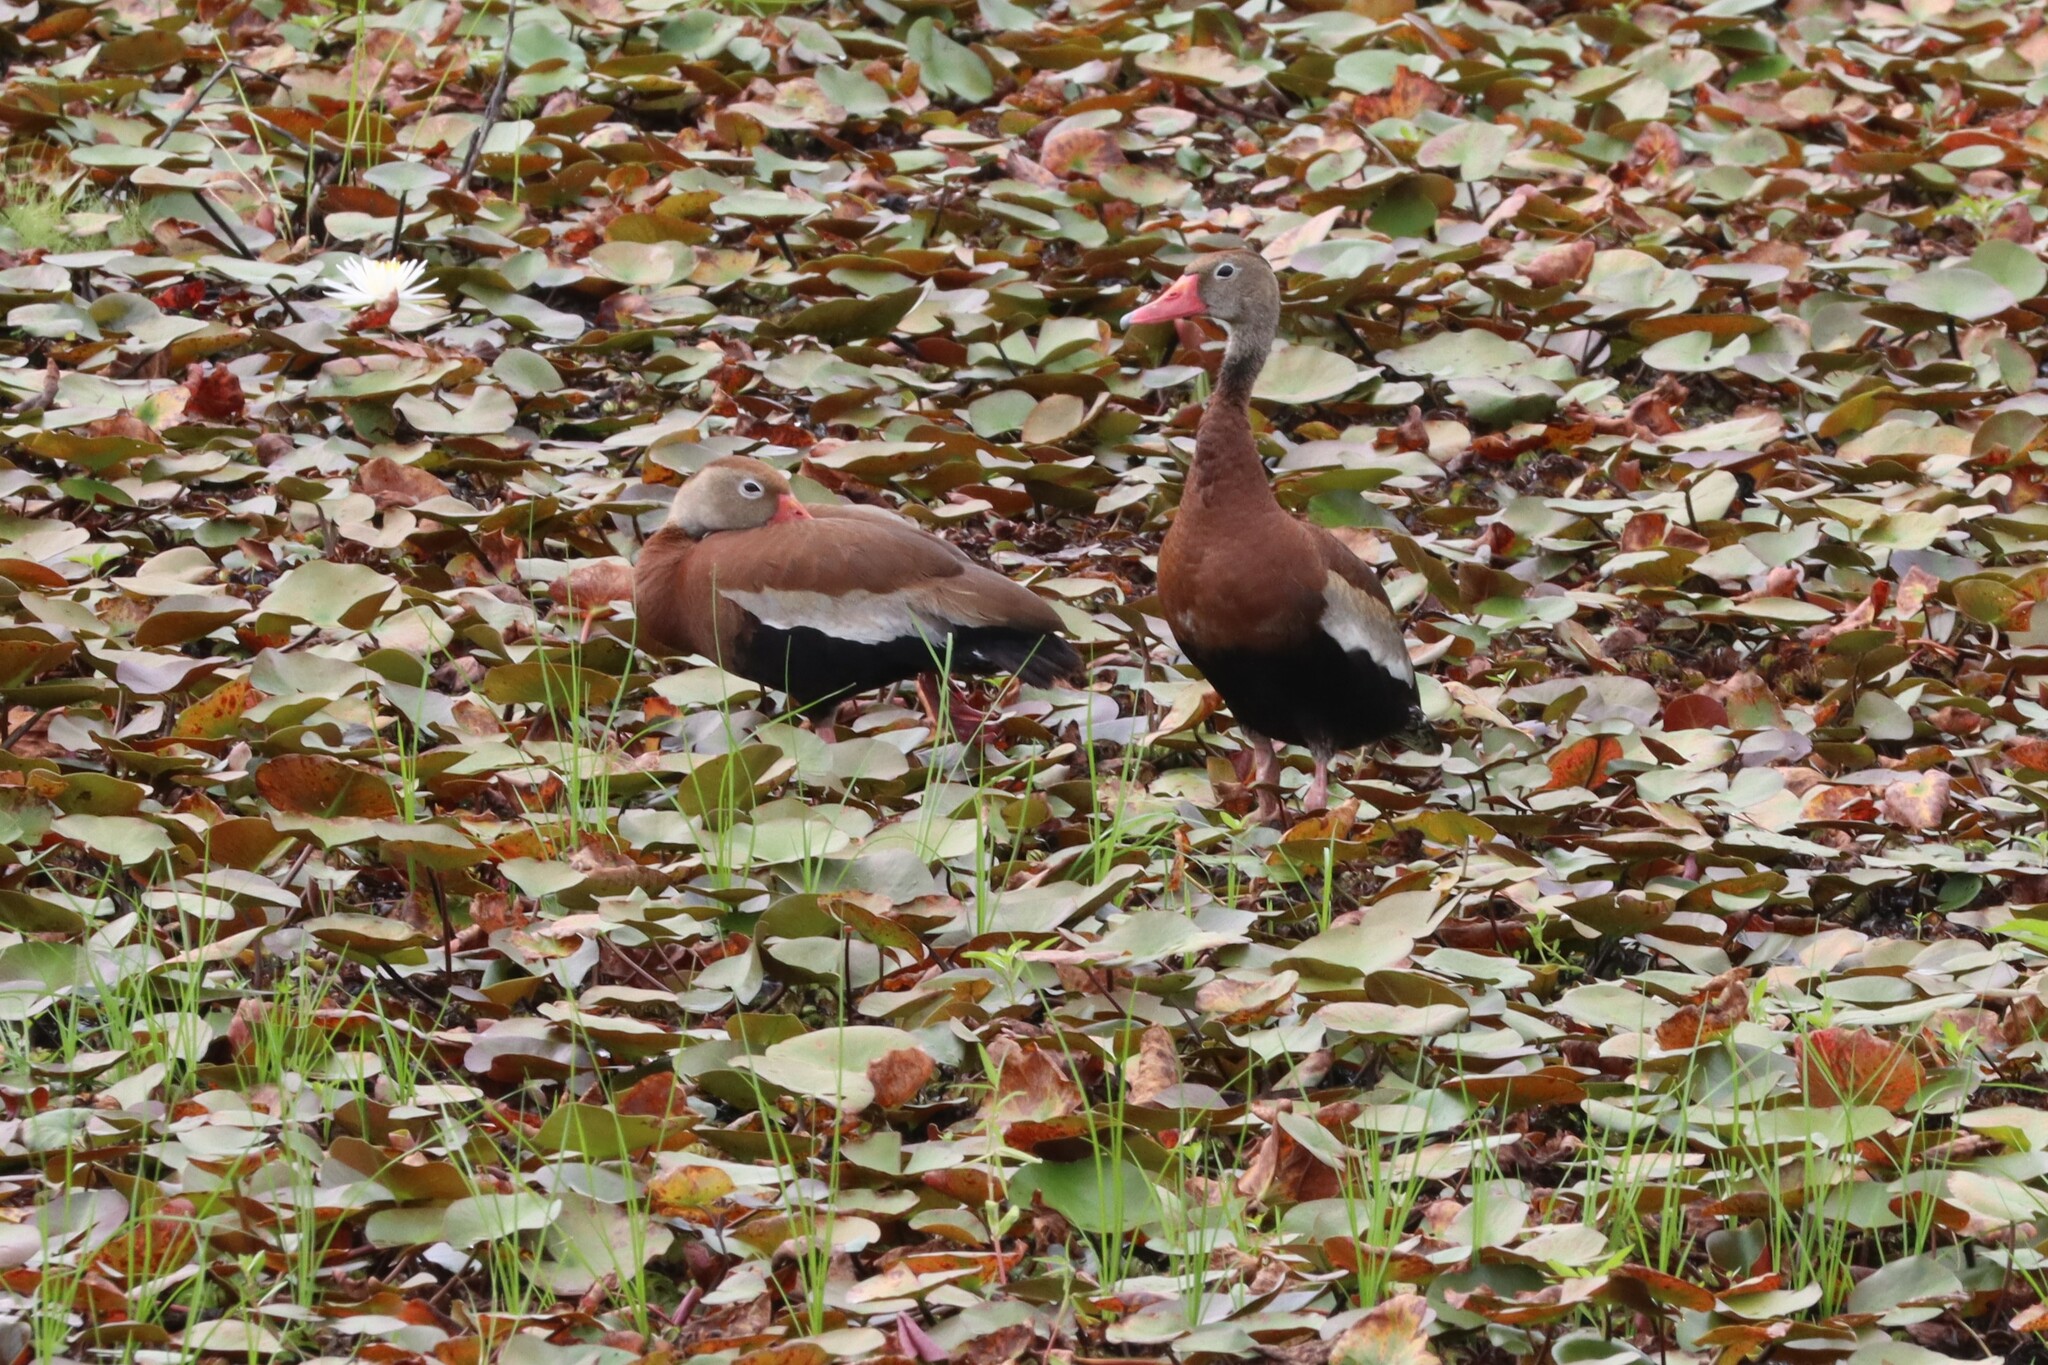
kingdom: Animalia
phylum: Chordata
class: Aves
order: Anseriformes
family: Anatidae
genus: Dendrocygna
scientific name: Dendrocygna autumnalis
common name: Black-bellied whistling duck
